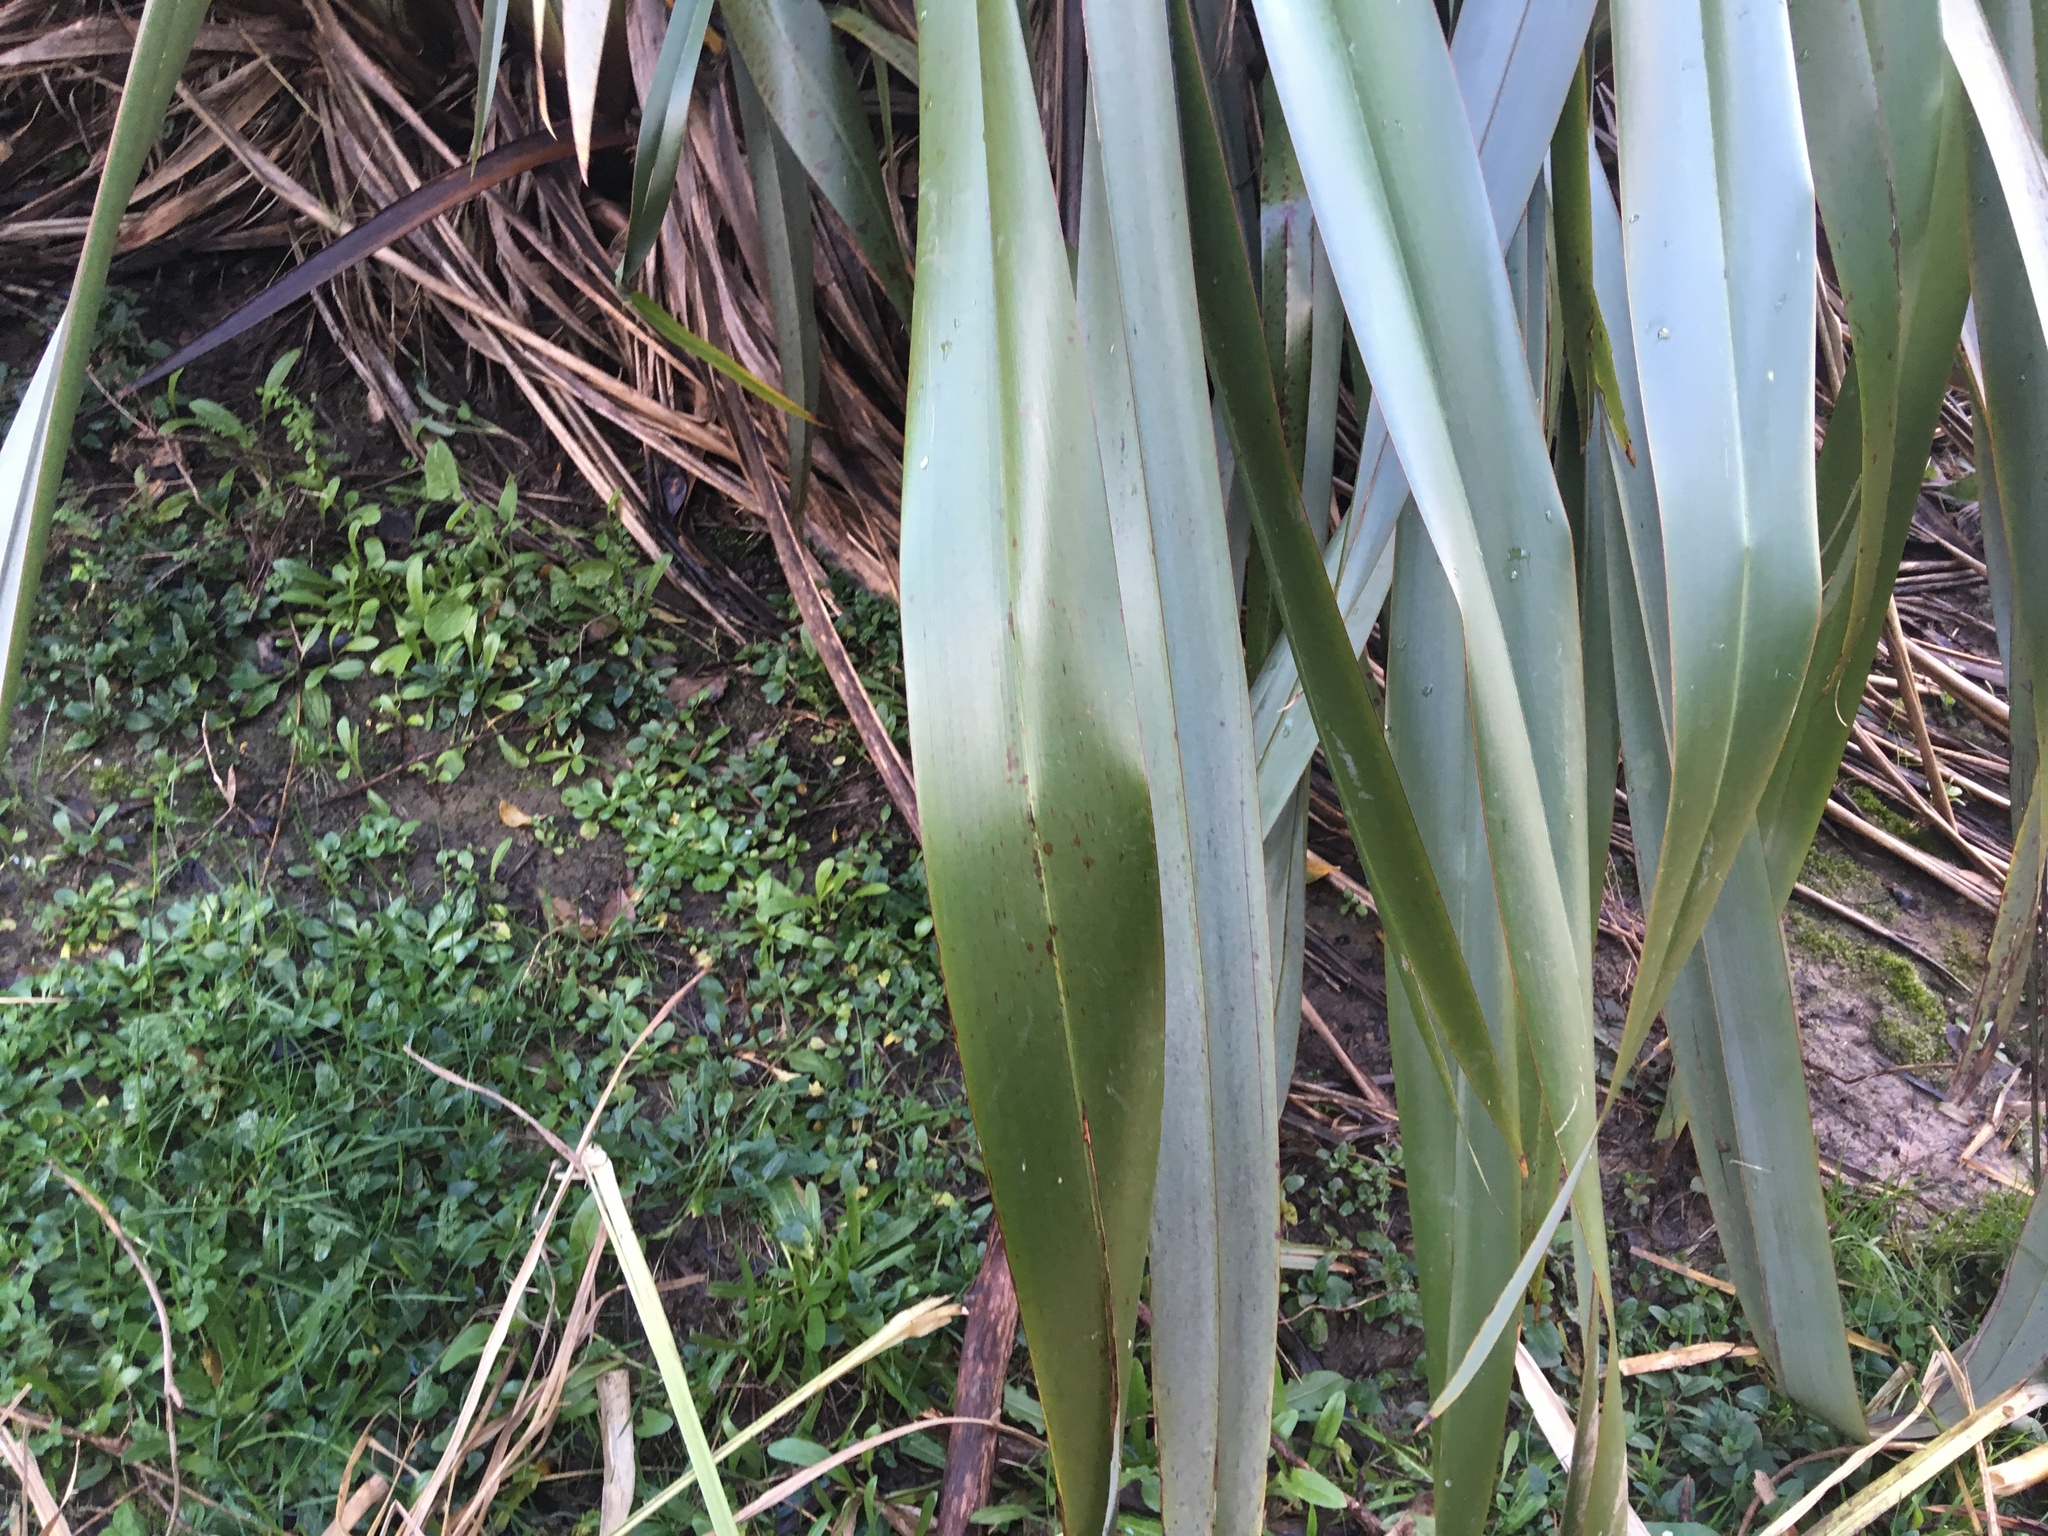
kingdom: Plantae
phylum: Tracheophyta
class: Magnoliopsida
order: Asterales
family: Asteraceae
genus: Bellis
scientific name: Bellis perennis
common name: Lawndaisy
